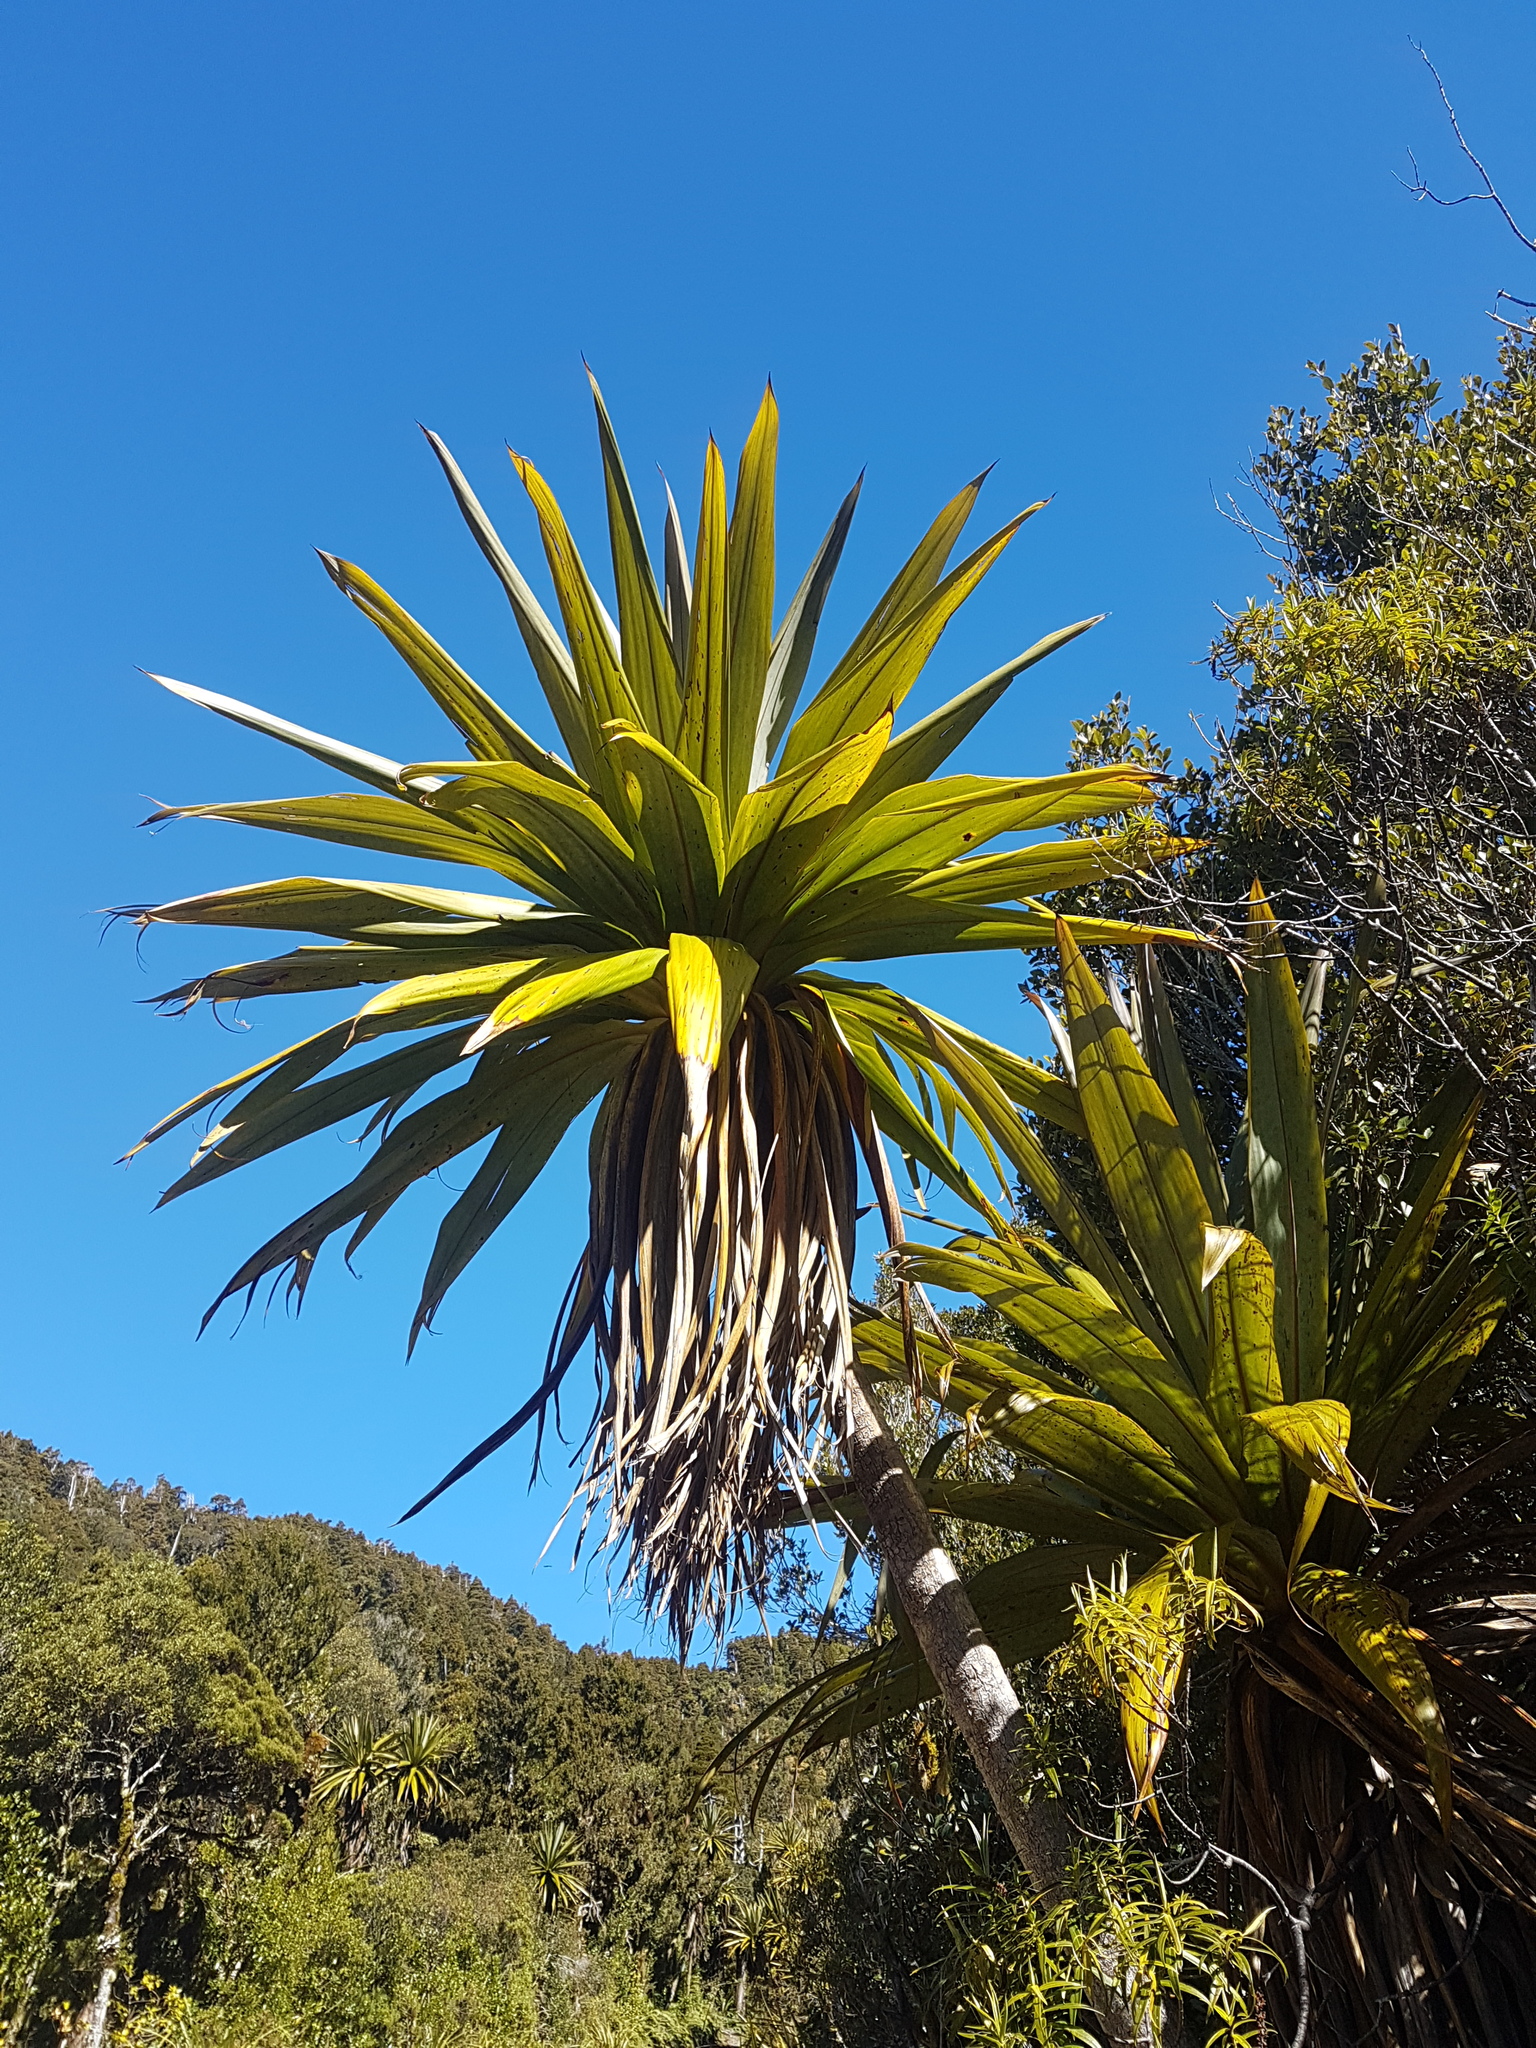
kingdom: Plantae
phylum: Tracheophyta
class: Liliopsida
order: Asparagales
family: Asparagaceae
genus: Cordyline
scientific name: Cordyline indivisa
